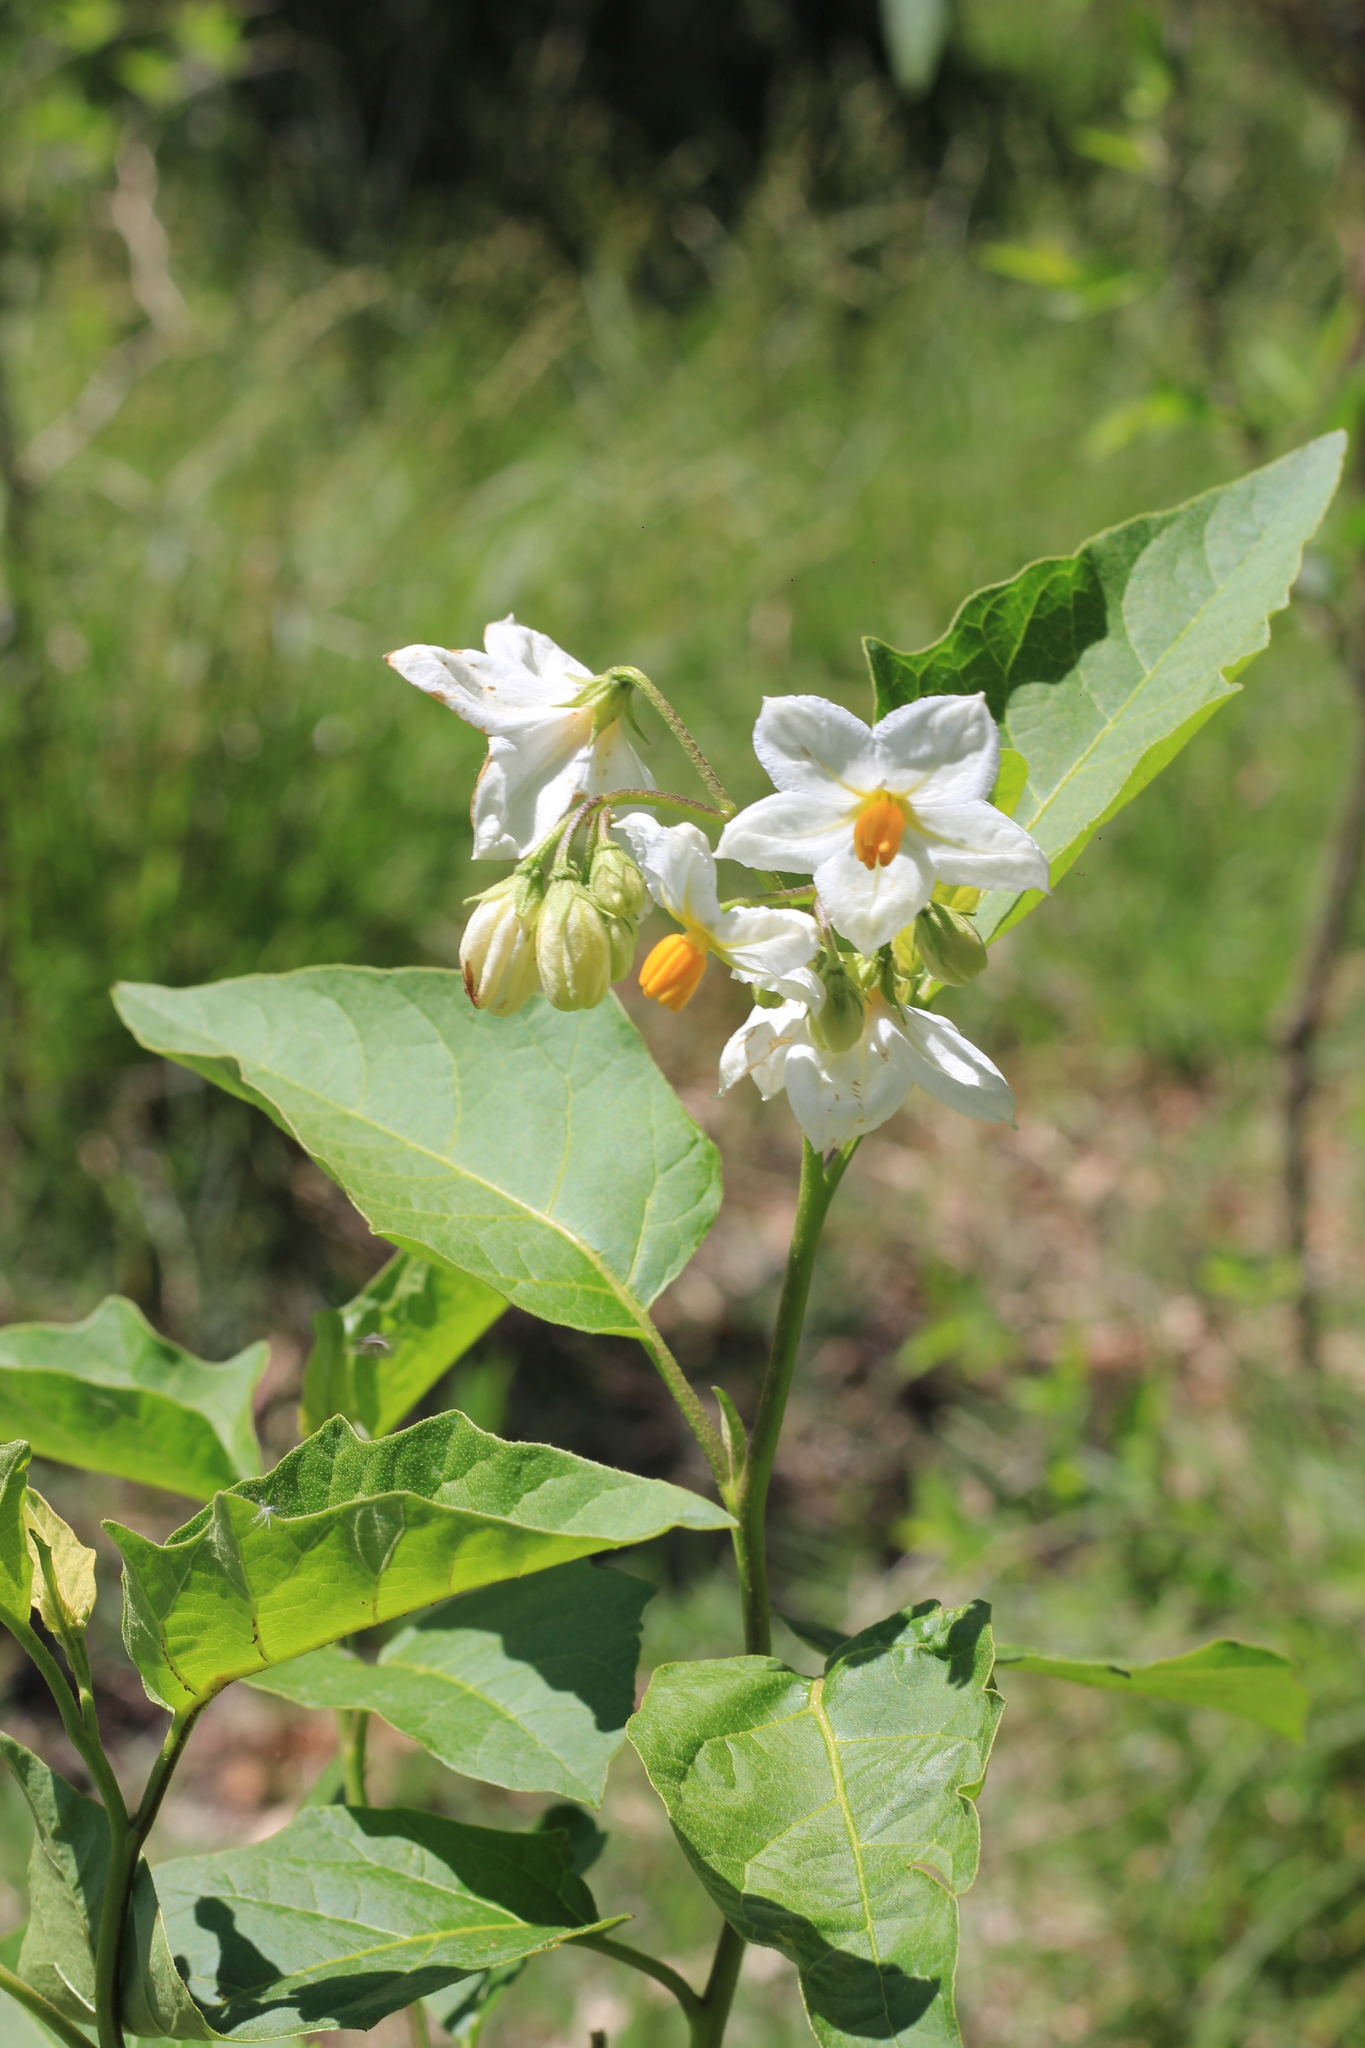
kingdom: Plantae
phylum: Tracheophyta
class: Magnoliopsida
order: Solanales
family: Solanaceae
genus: Solanum
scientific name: Solanum bonariense
